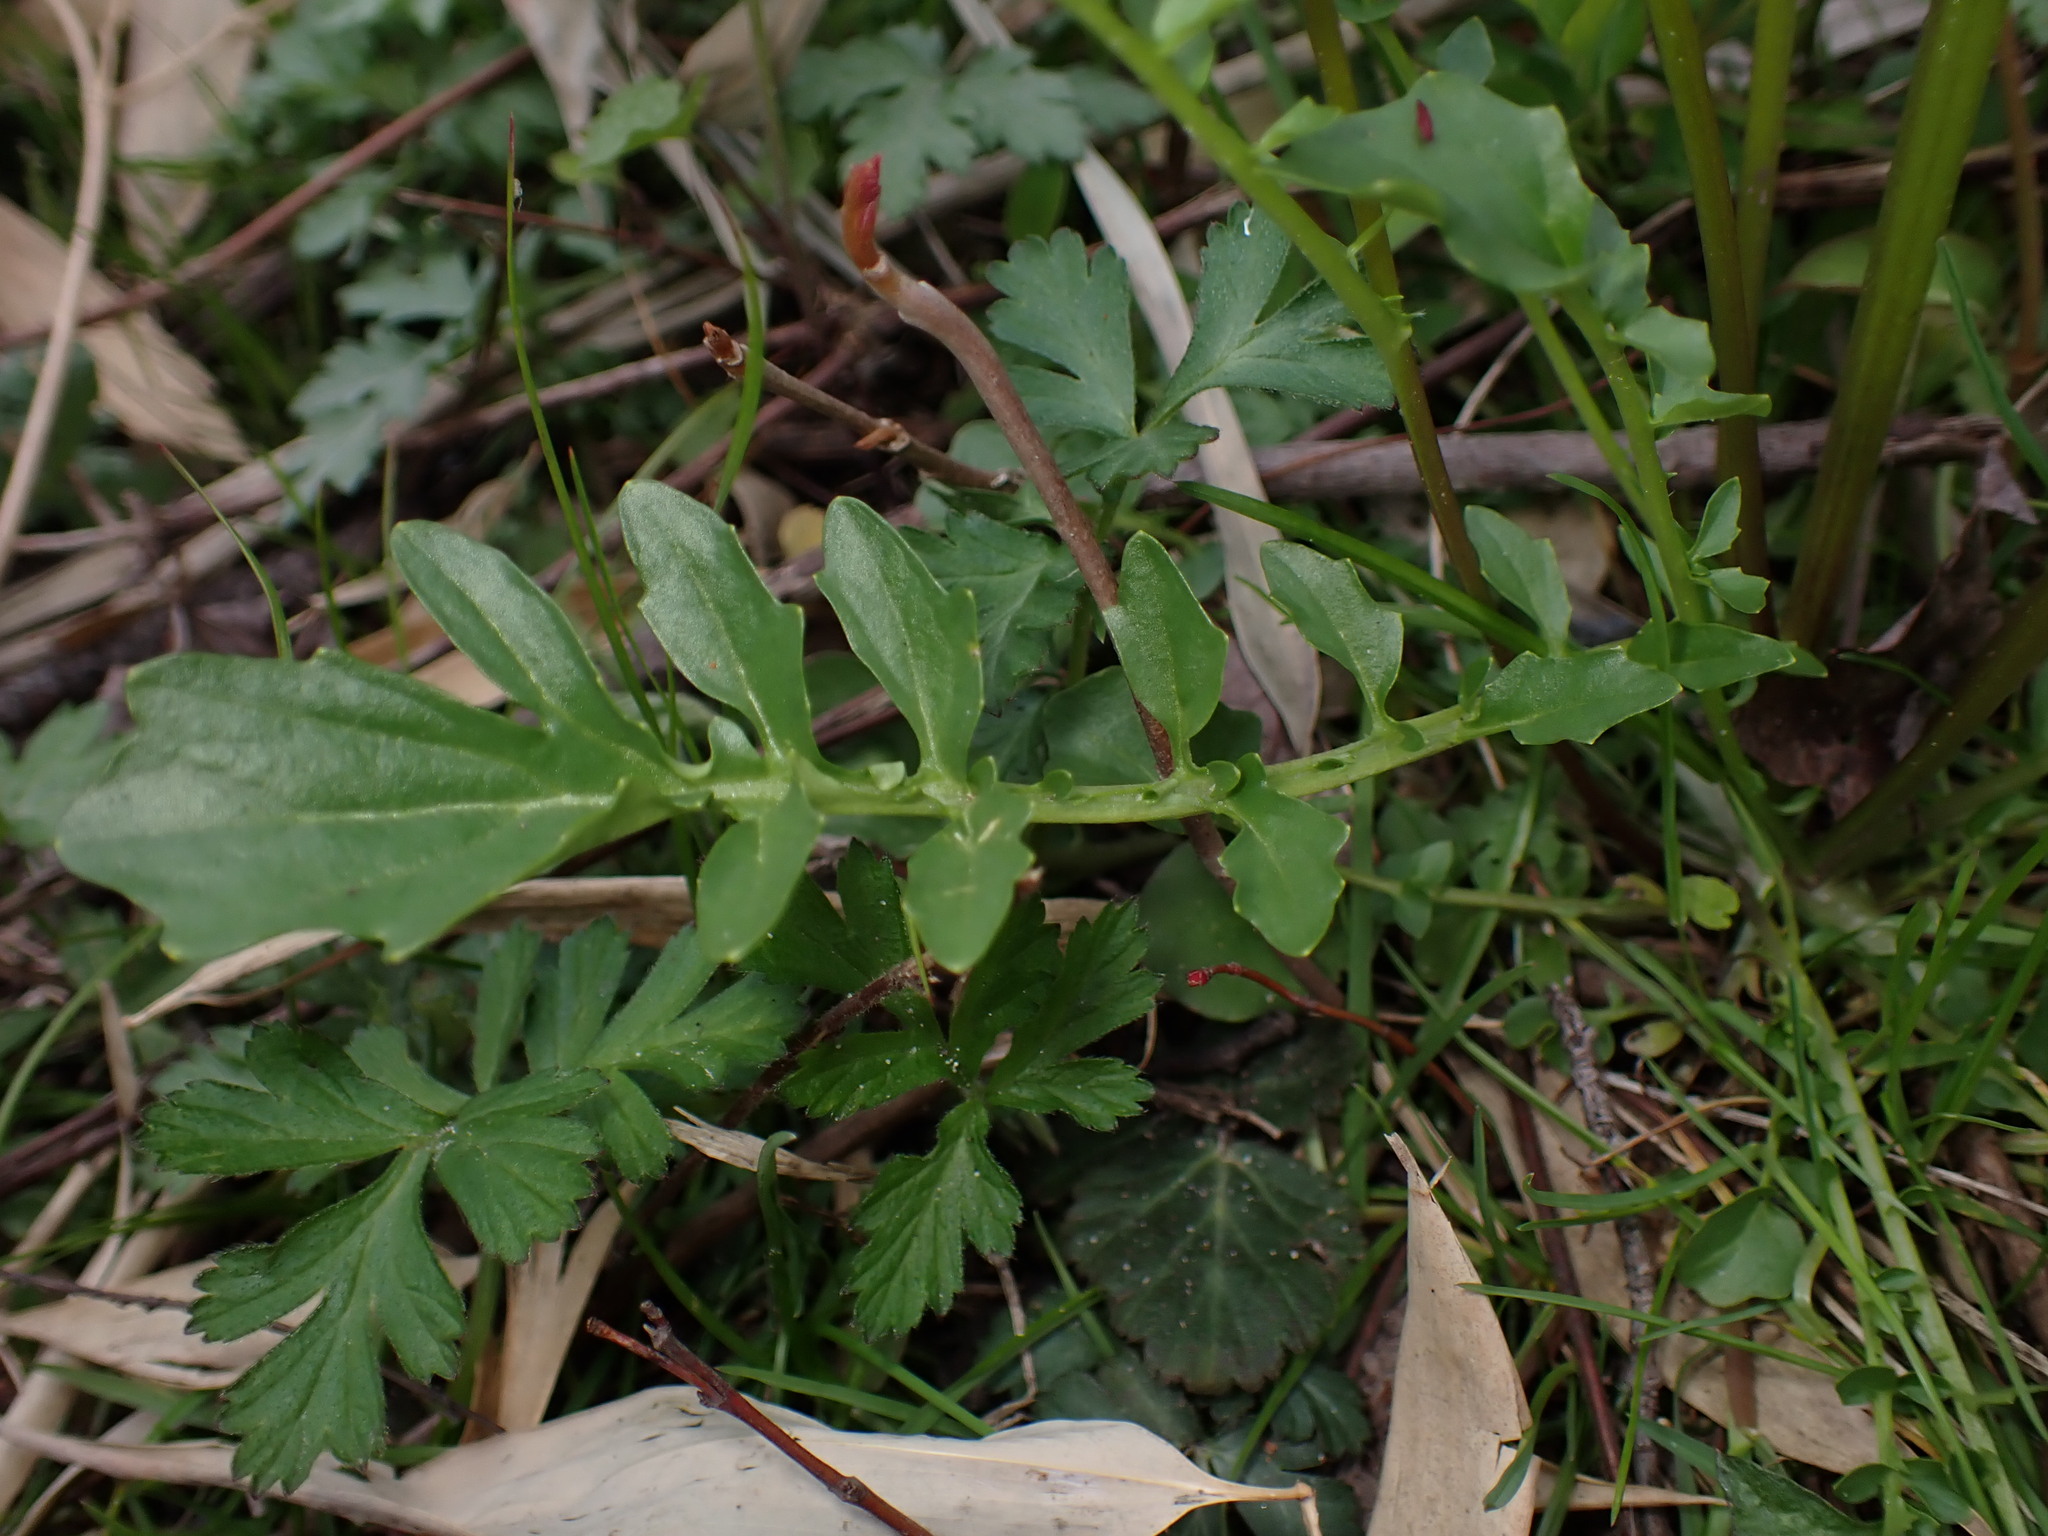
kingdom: Plantae
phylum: Tracheophyta
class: Magnoliopsida
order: Brassicales
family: Brassicaceae
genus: Barbarea
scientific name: Barbarea verna
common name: American cress
